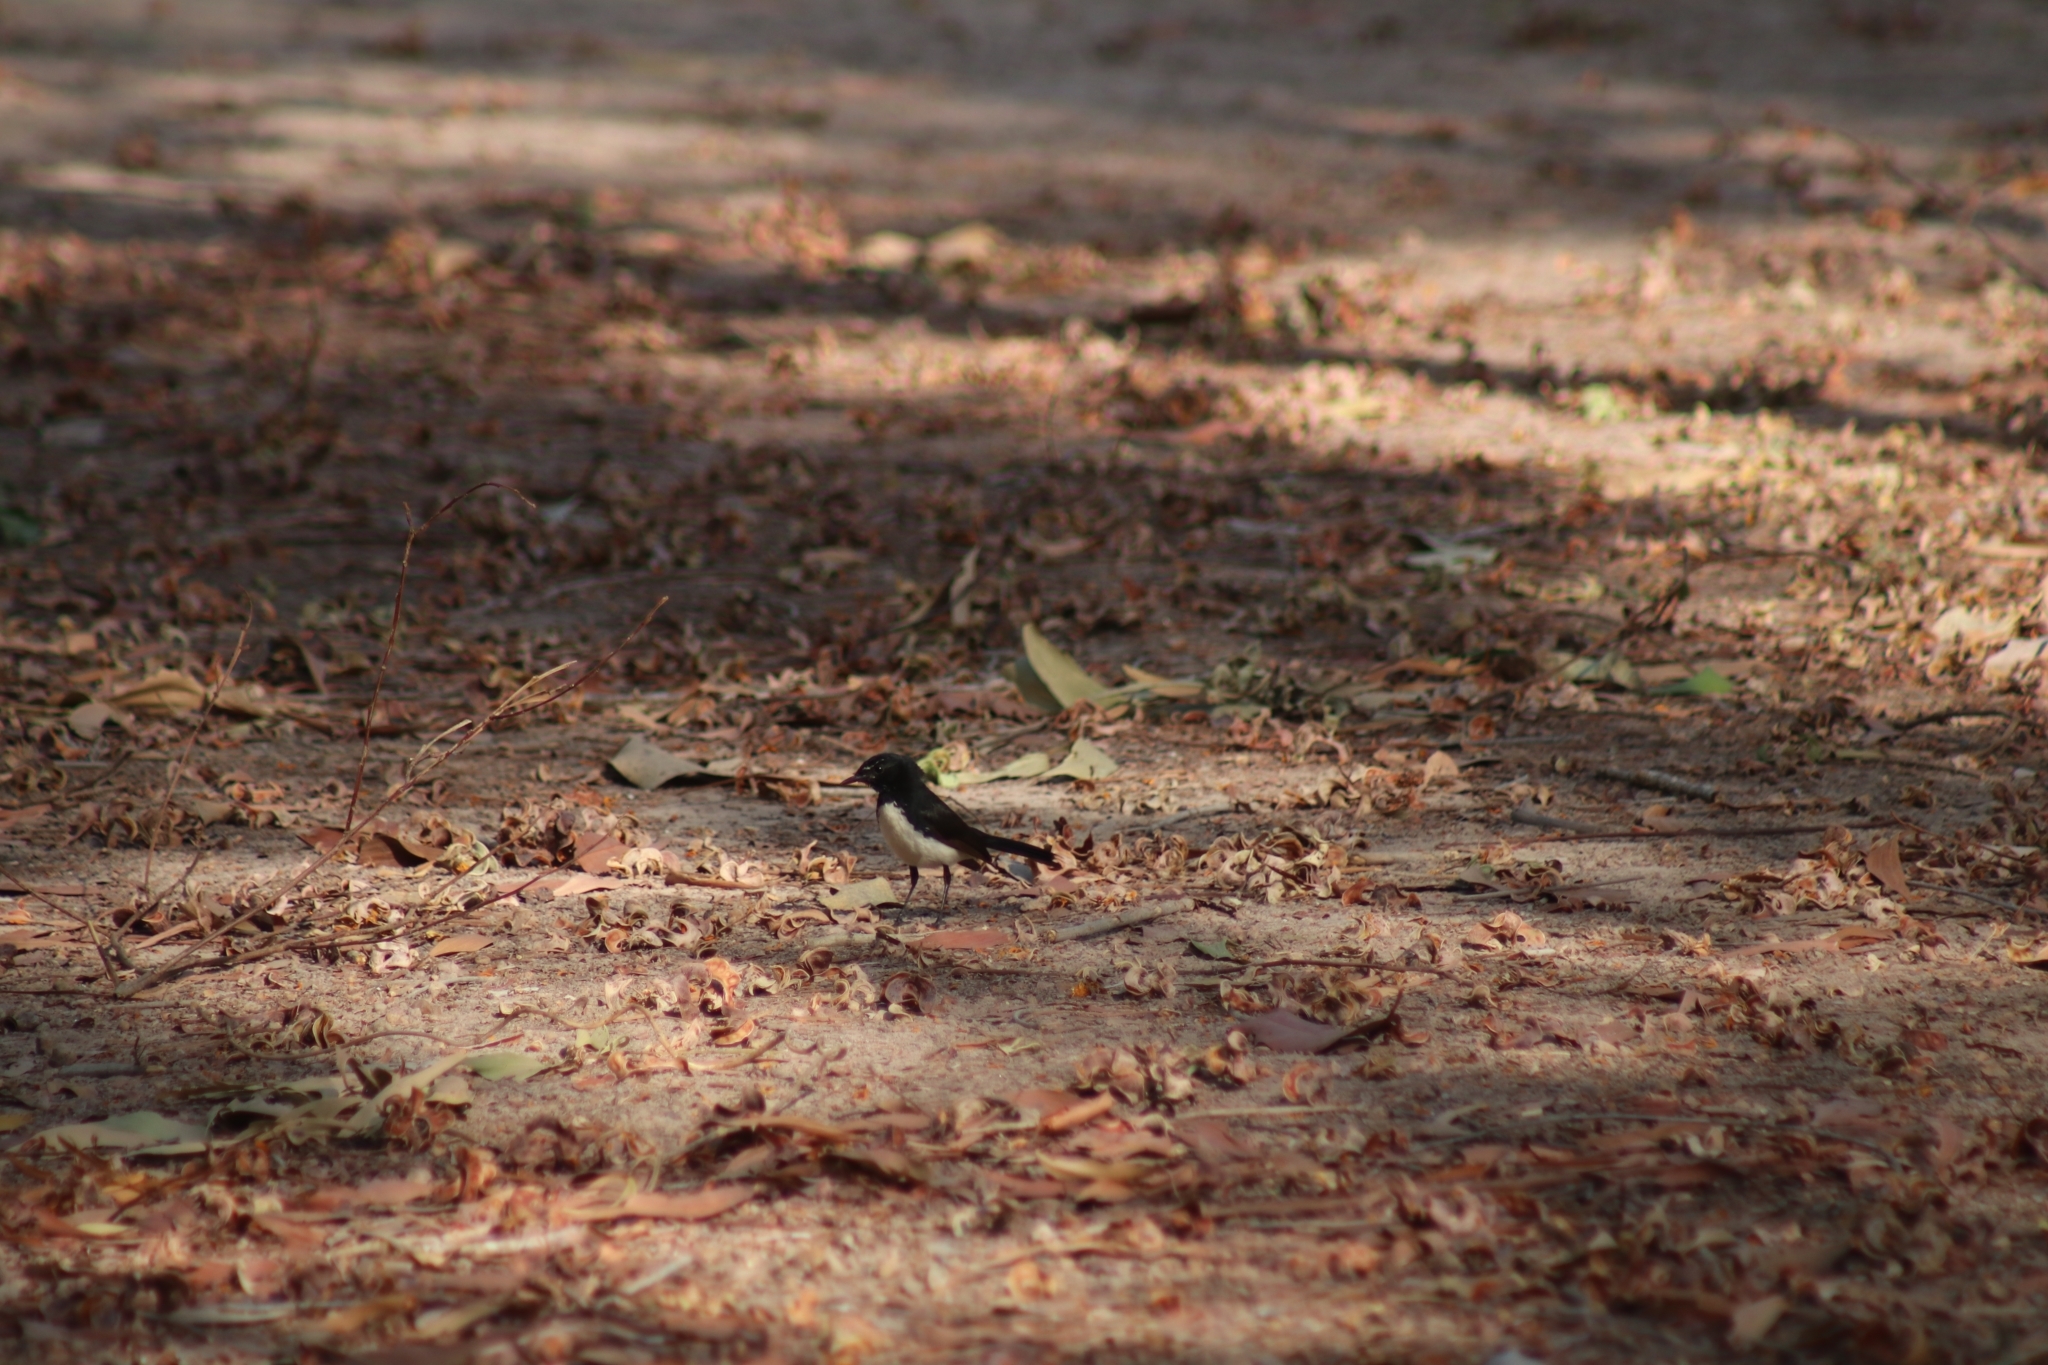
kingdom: Animalia
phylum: Chordata
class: Aves
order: Passeriformes
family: Rhipiduridae
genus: Rhipidura
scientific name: Rhipidura leucophrys
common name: Willie wagtail
